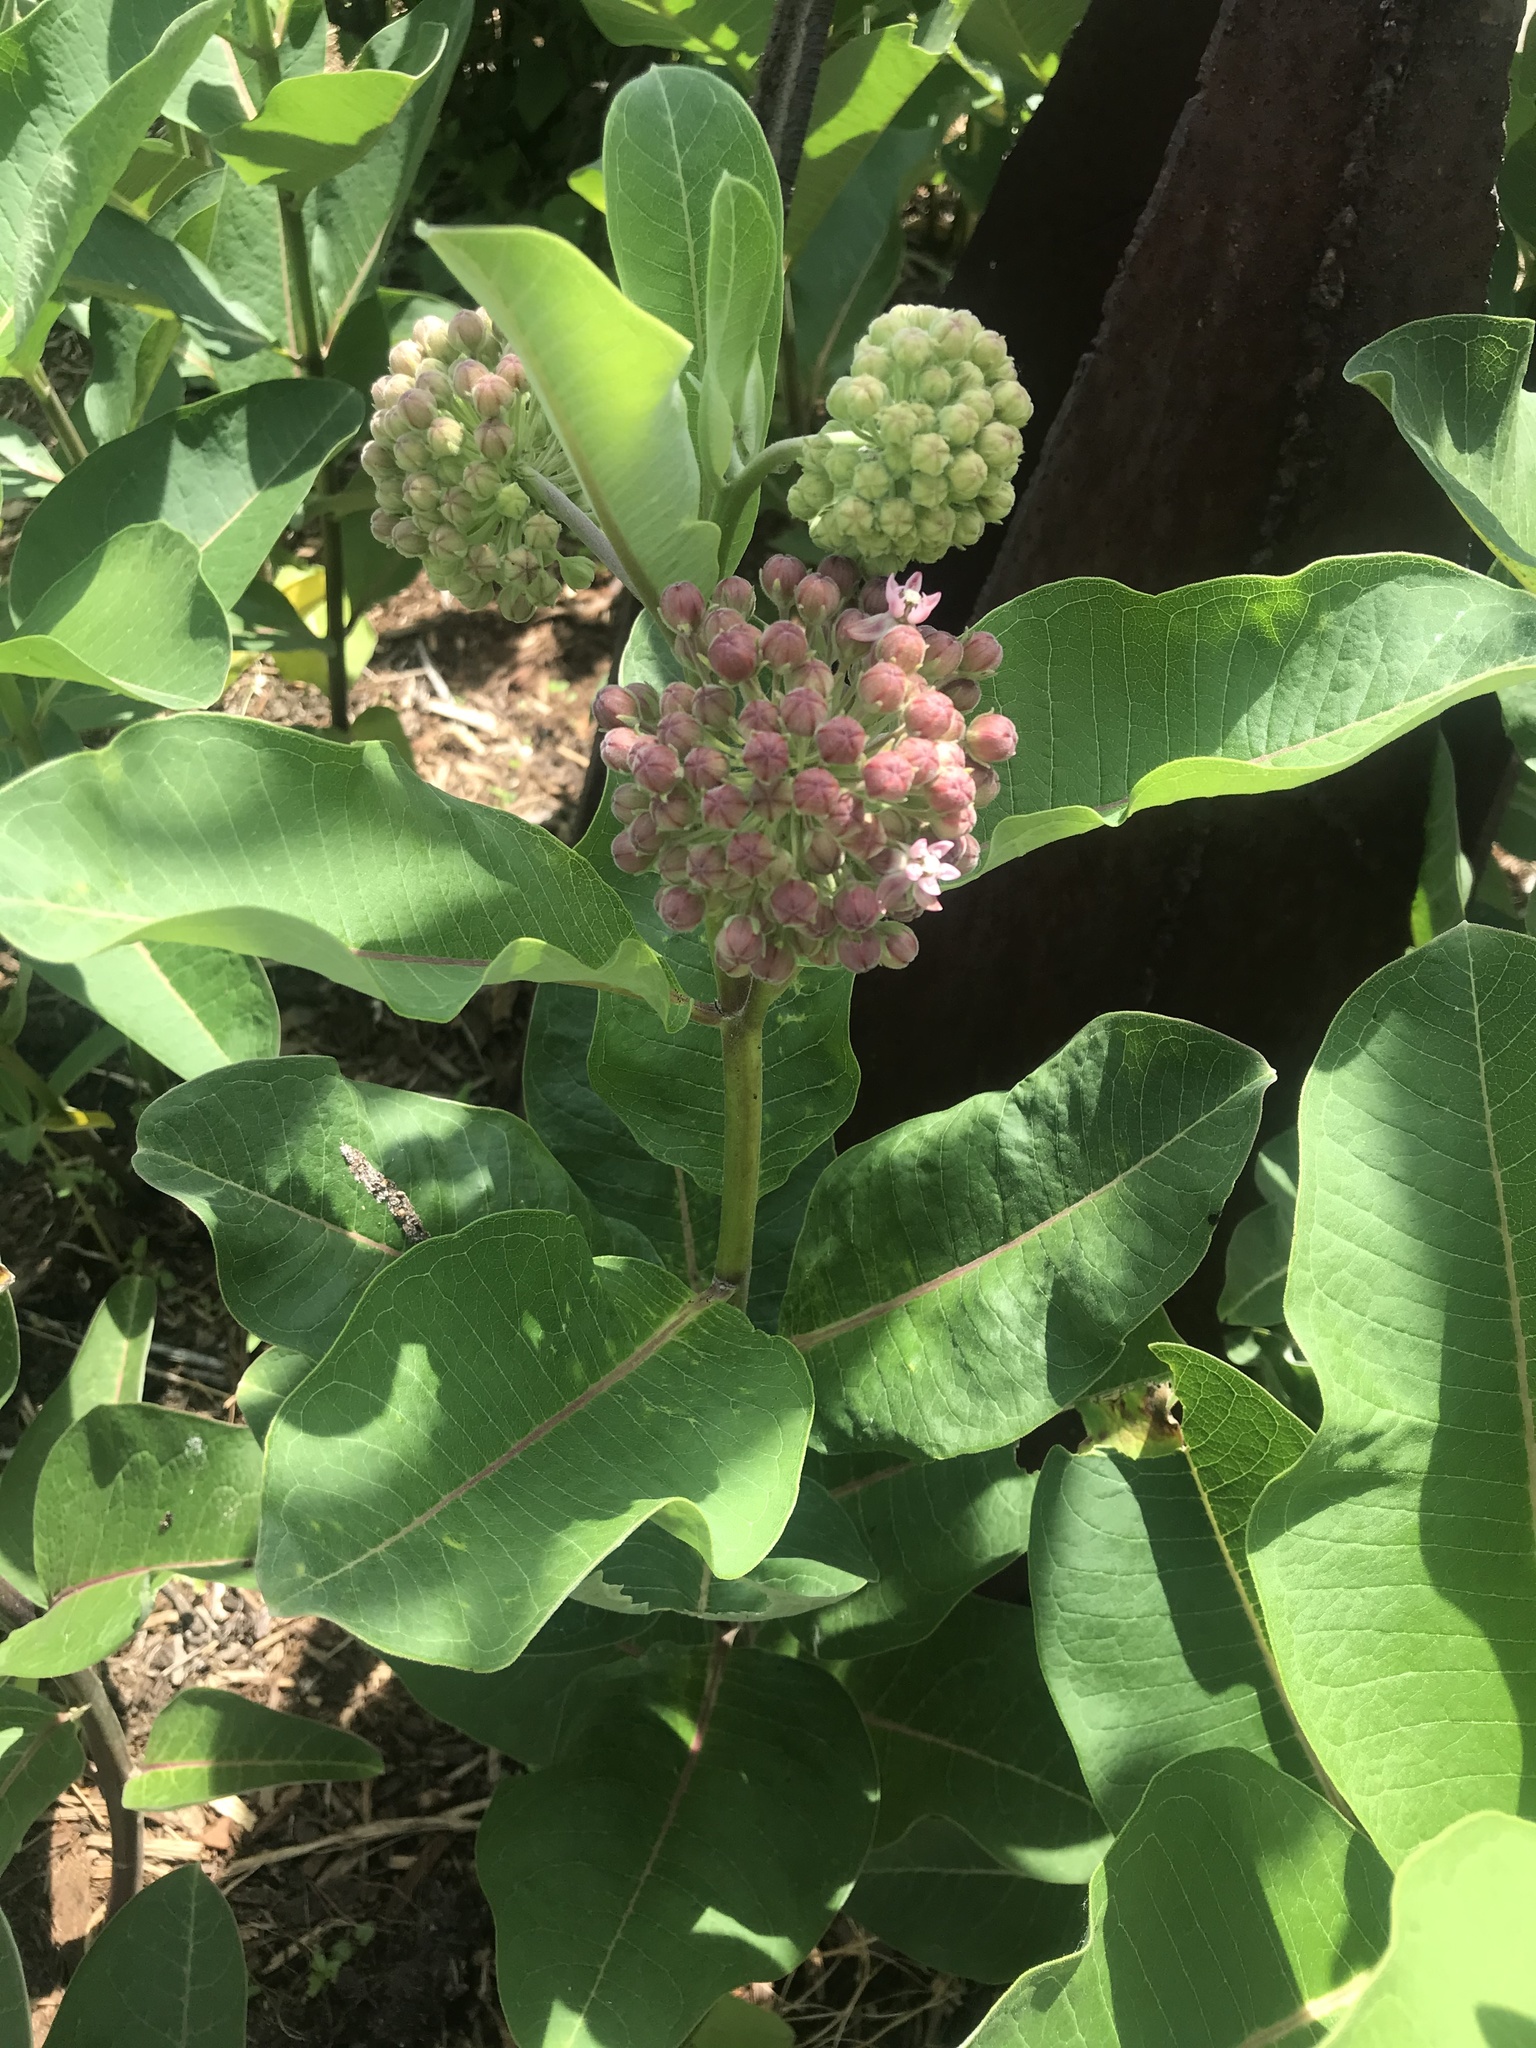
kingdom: Plantae
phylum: Tracheophyta
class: Magnoliopsida
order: Gentianales
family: Apocynaceae
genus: Asclepias
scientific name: Asclepias syriaca
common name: Common milkweed
